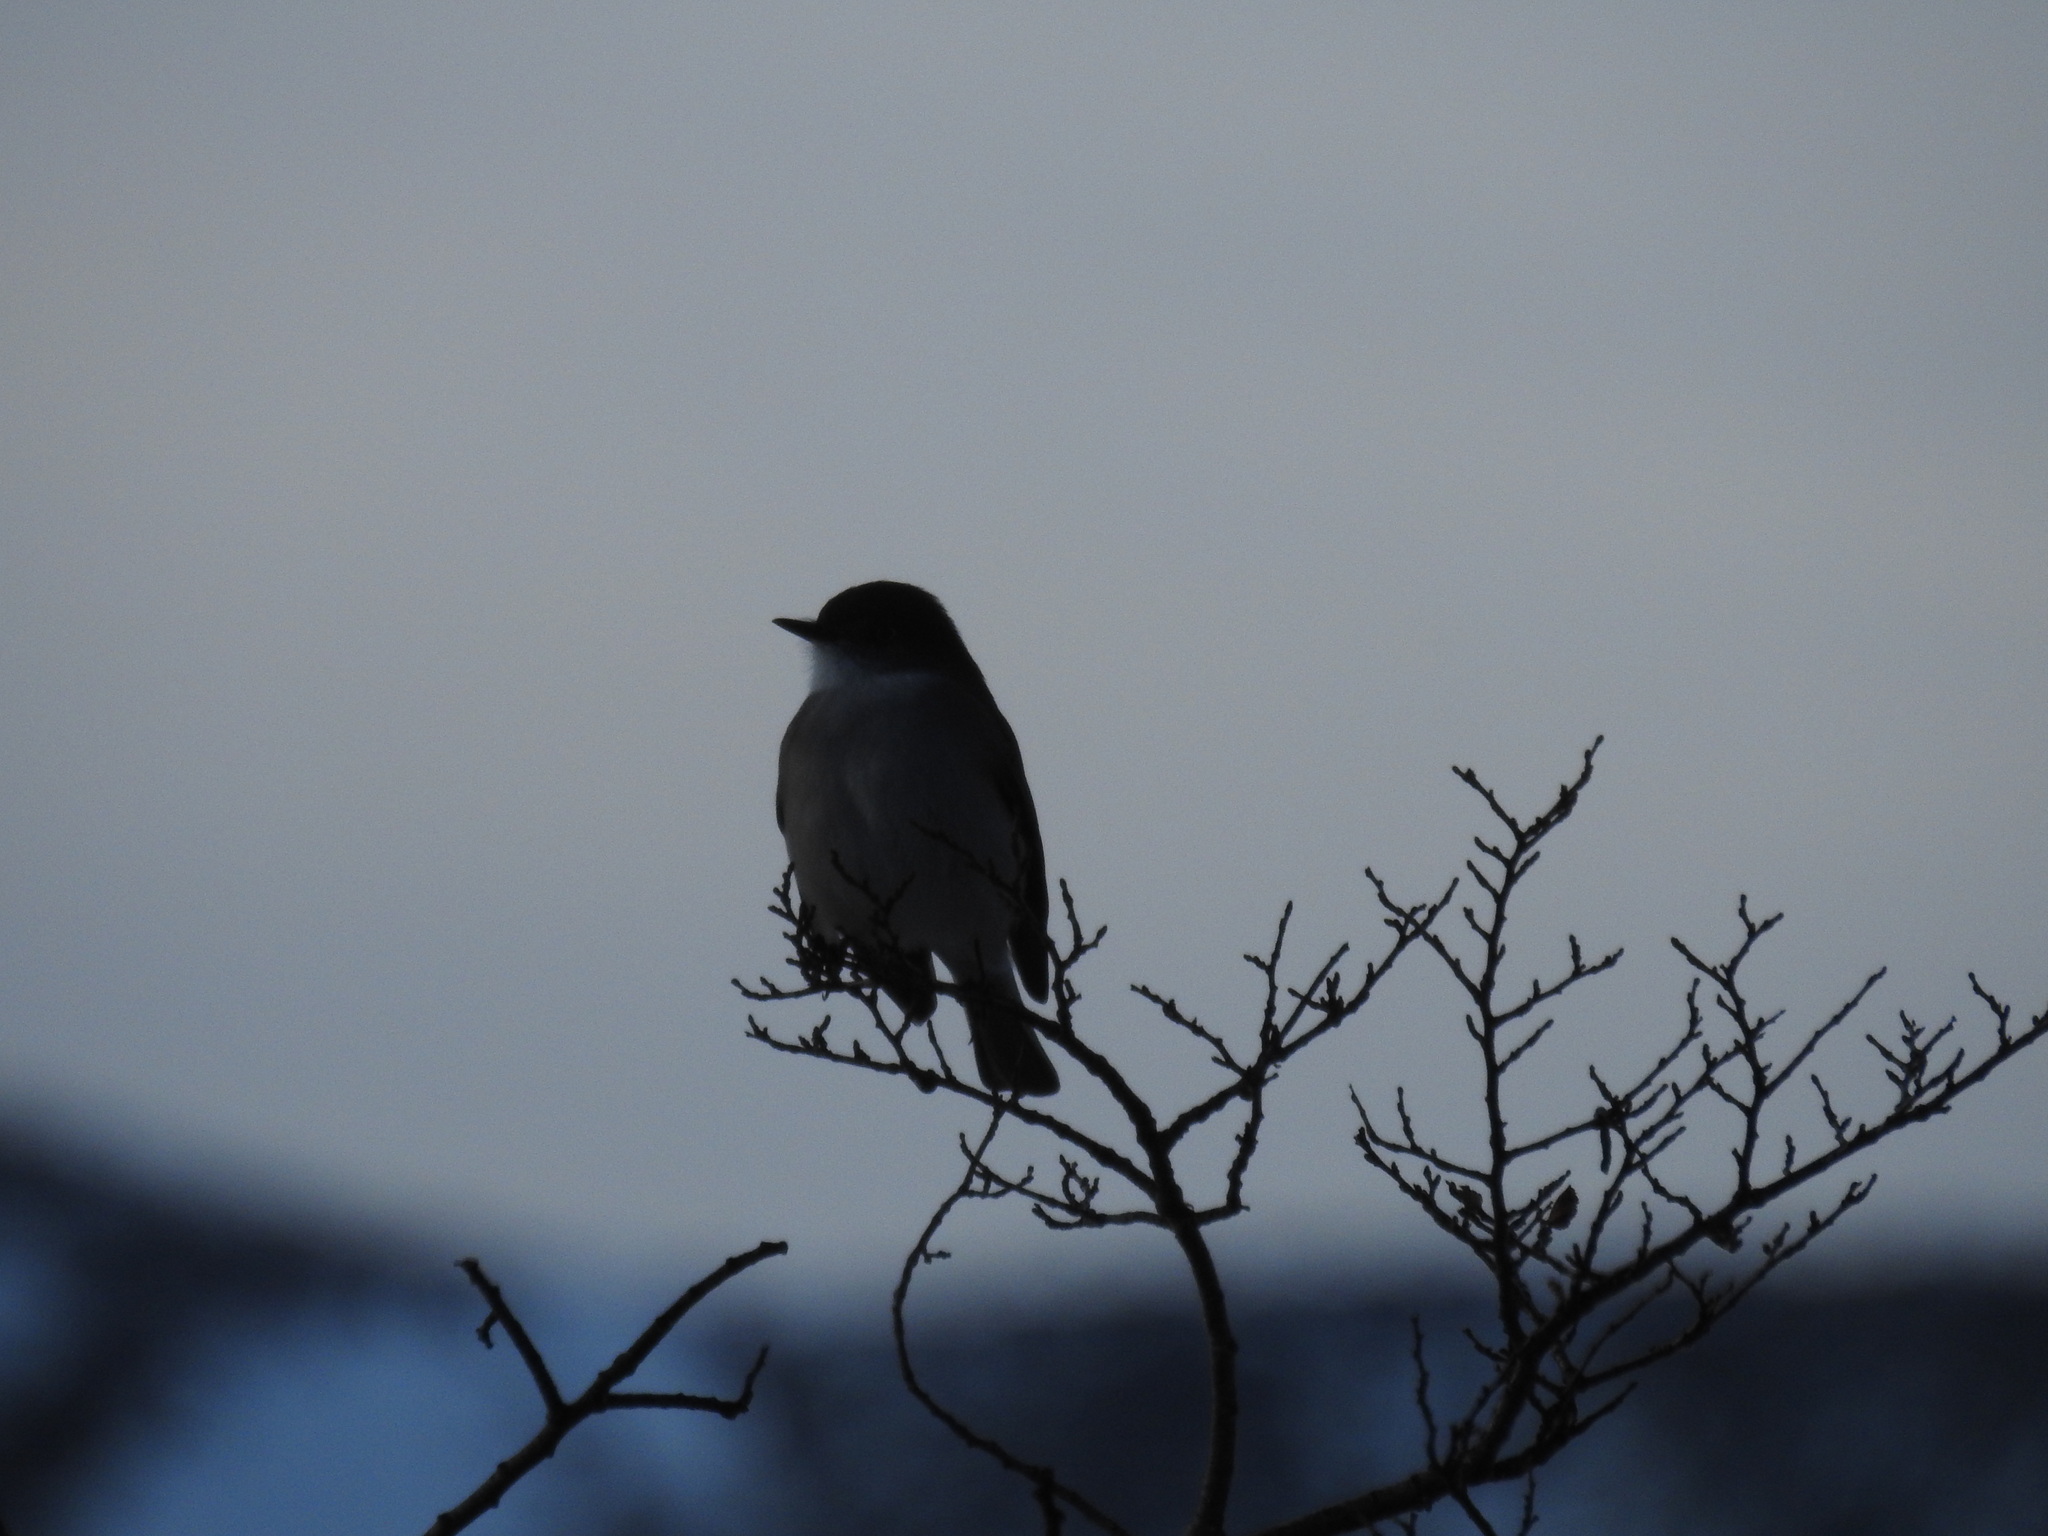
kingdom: Animalia
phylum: Chordata
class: Aves
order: Passeriformes
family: Tyrannidae
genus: Xolmis
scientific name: Xolmis pyrope
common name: Fire-eyed diucon
